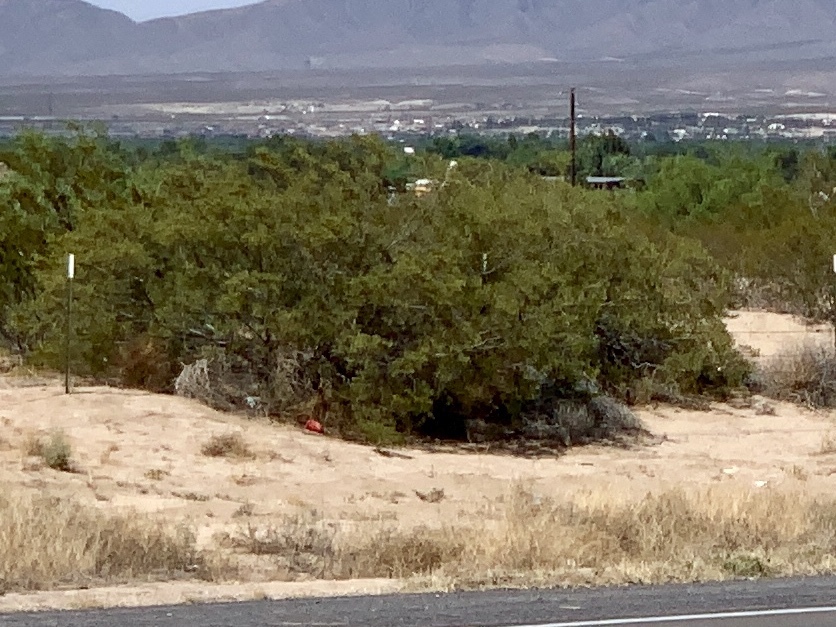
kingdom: Plantae
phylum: Tracheophyta
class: Magnoliopsida
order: Zygophyllales
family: Zygophyllaceae
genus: Larrea
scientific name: Larrea tridentata
